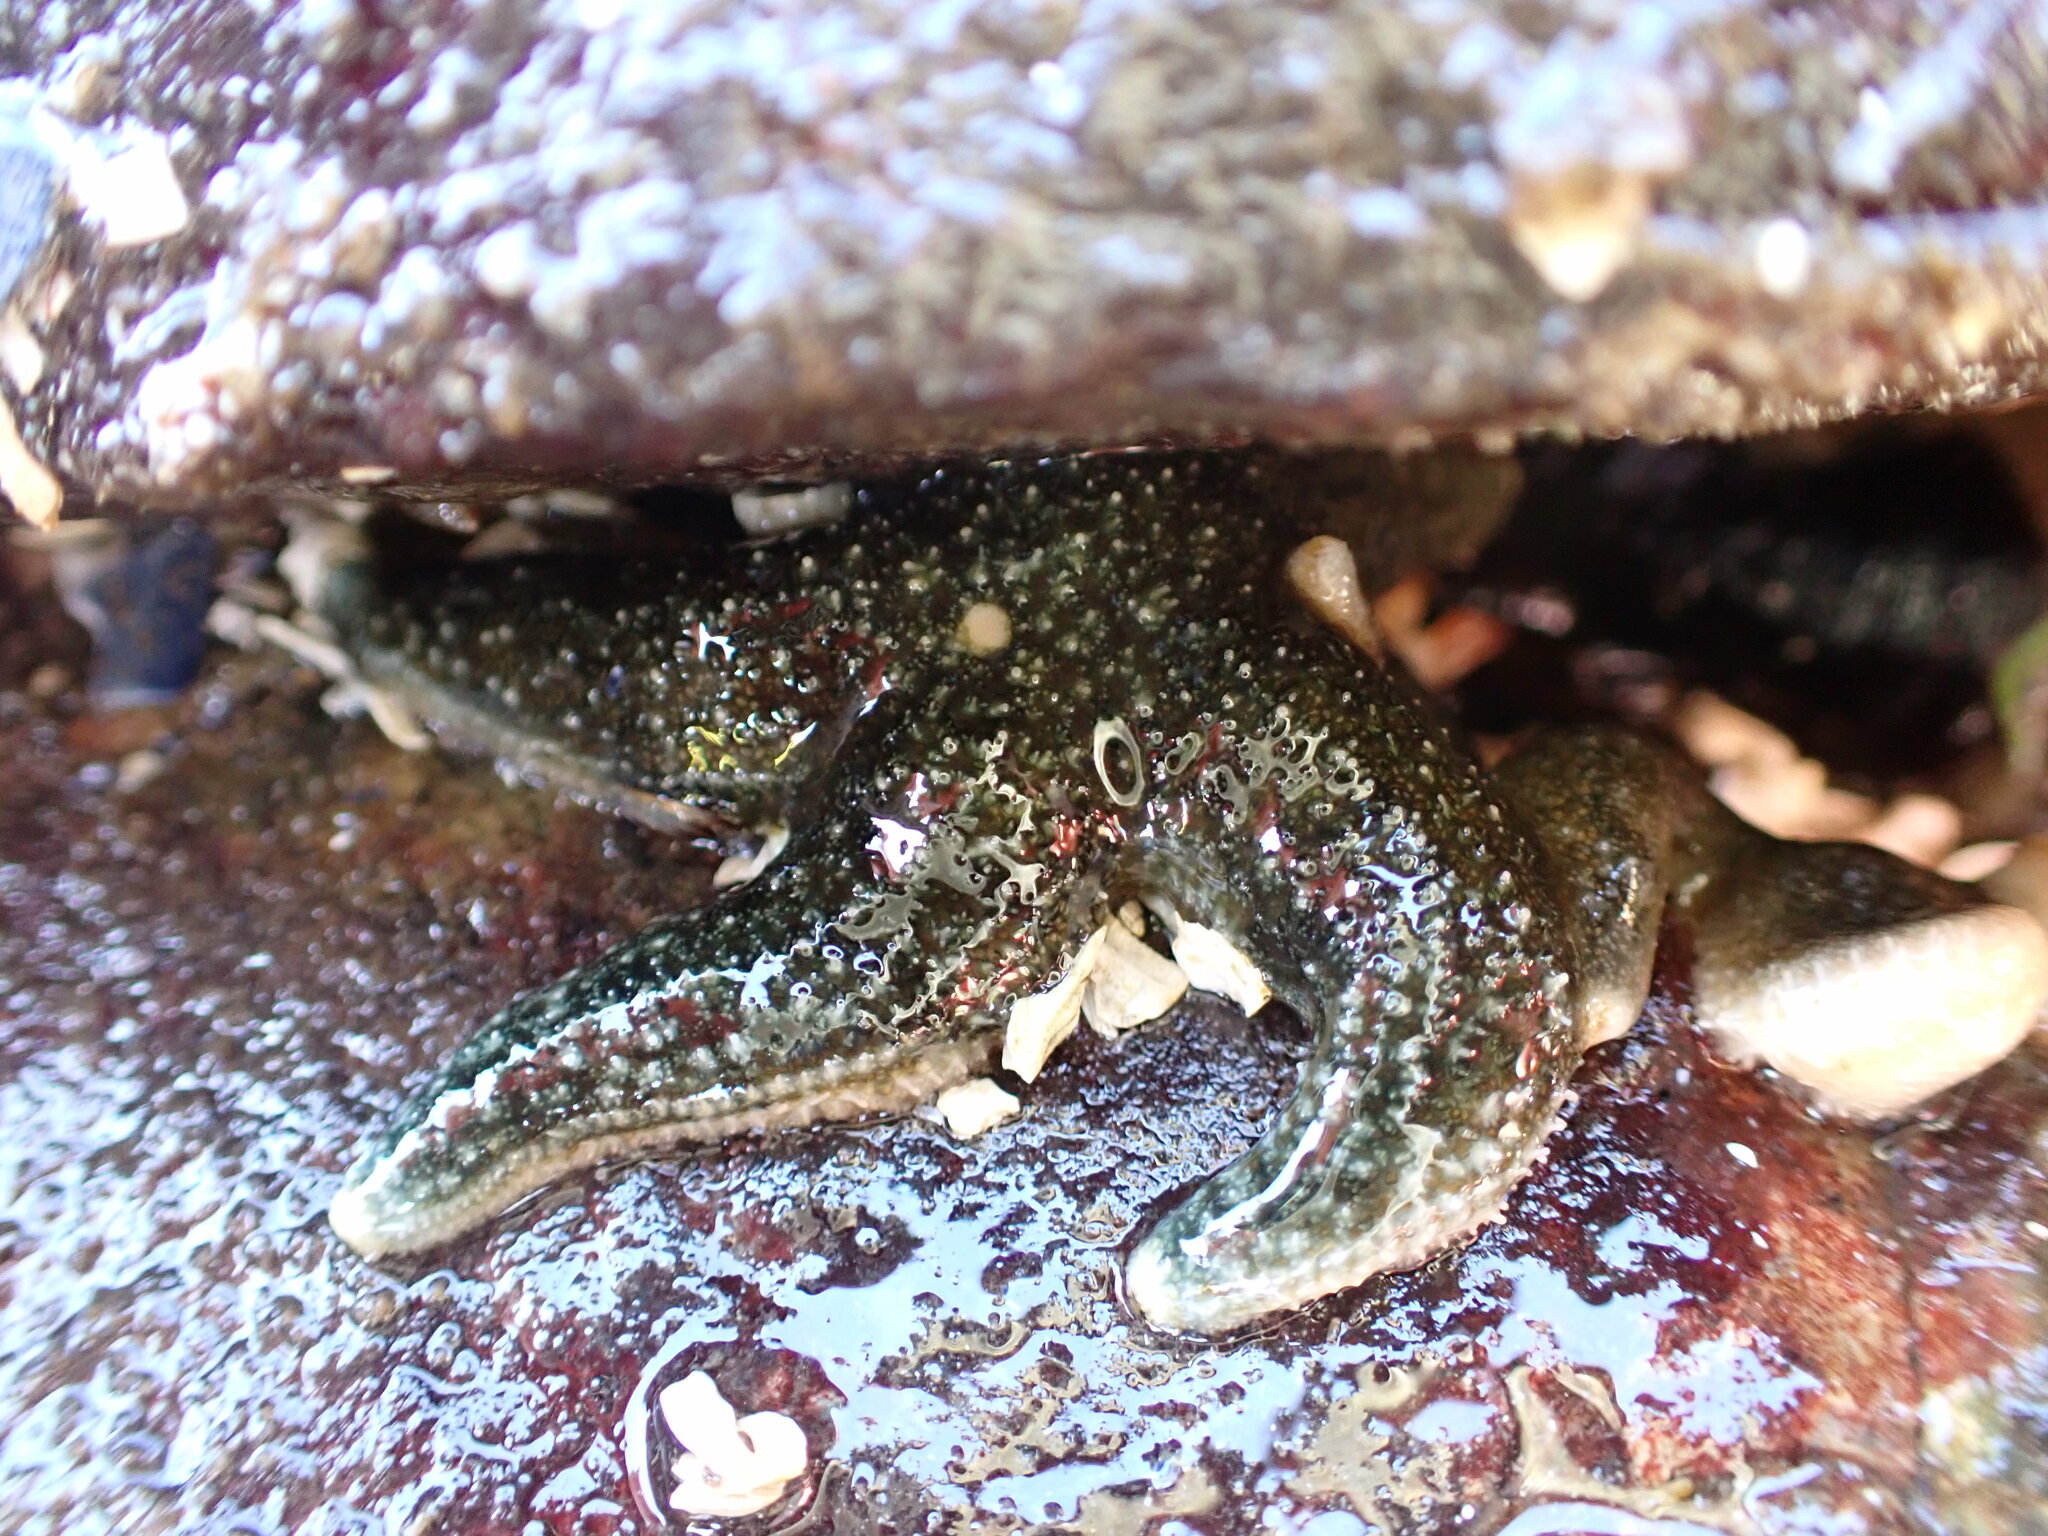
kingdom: Animalia
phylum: Echinodermata
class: Asteroidea
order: Forcipulatida
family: Asteriidae
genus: Evasterias
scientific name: Evasterias troschelii
